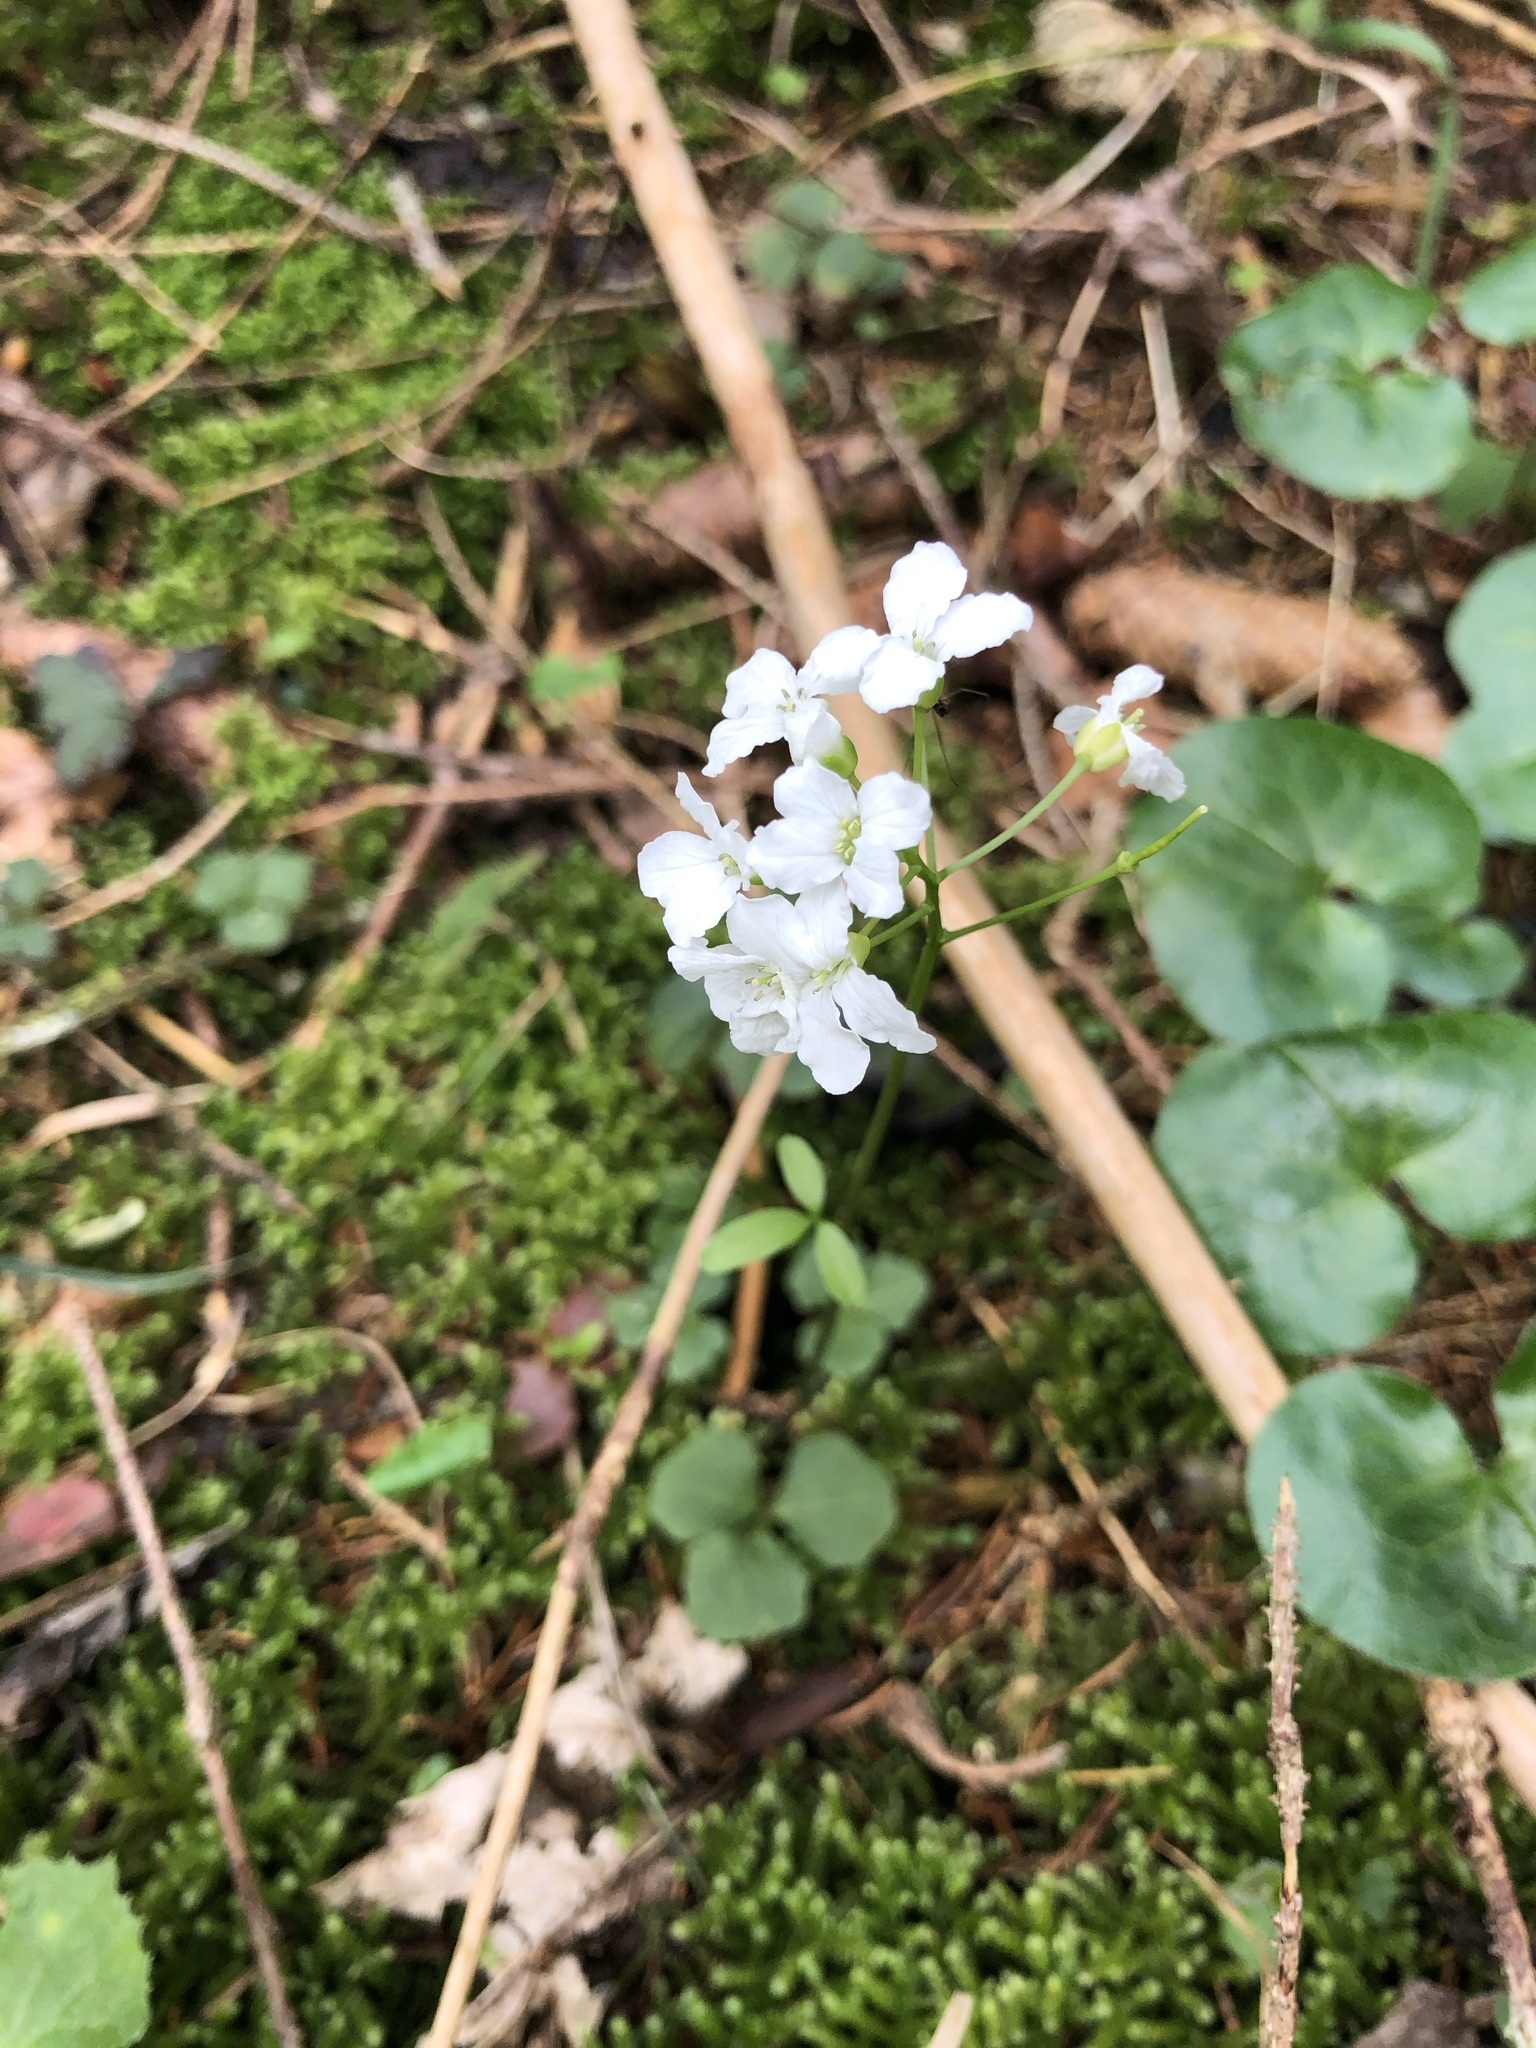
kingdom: Plantae
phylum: Tracheophyta
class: Magnoliopsida
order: Brassicales
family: Brassicaceae
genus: Cardamine
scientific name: Cardamine trifolia
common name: Trefoil cress
